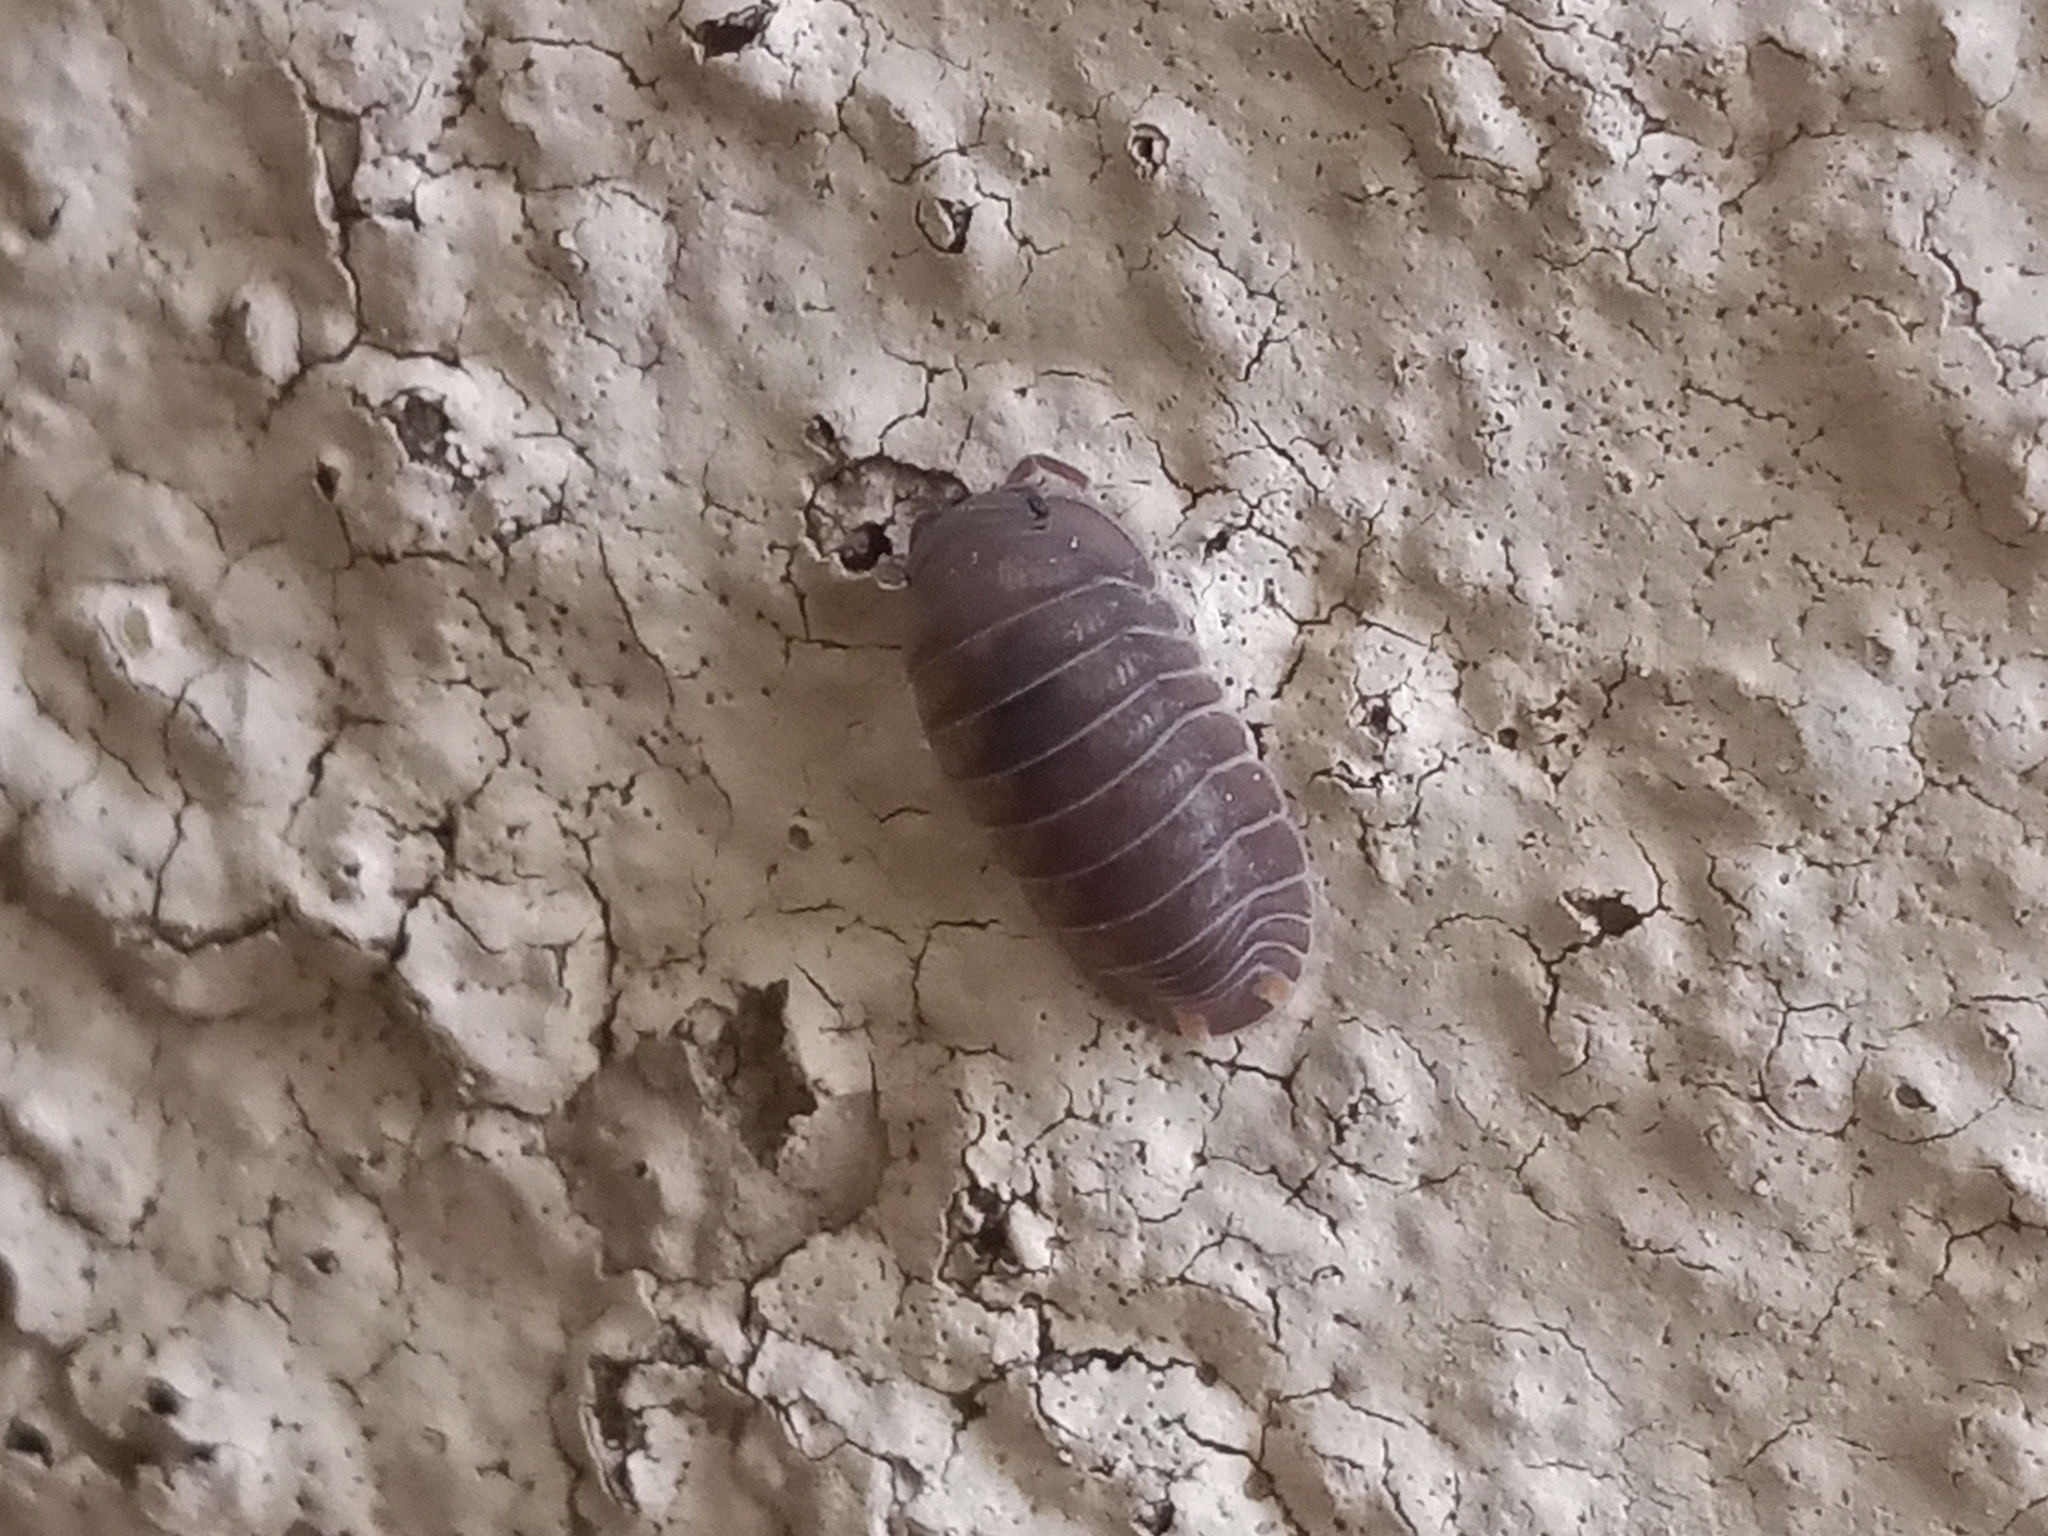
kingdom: Animalia
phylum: Arthropoda
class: Malacostraca
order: Isopoda
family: Armadillidae
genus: Cubaris
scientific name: Cubaris murina
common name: Pillbug
